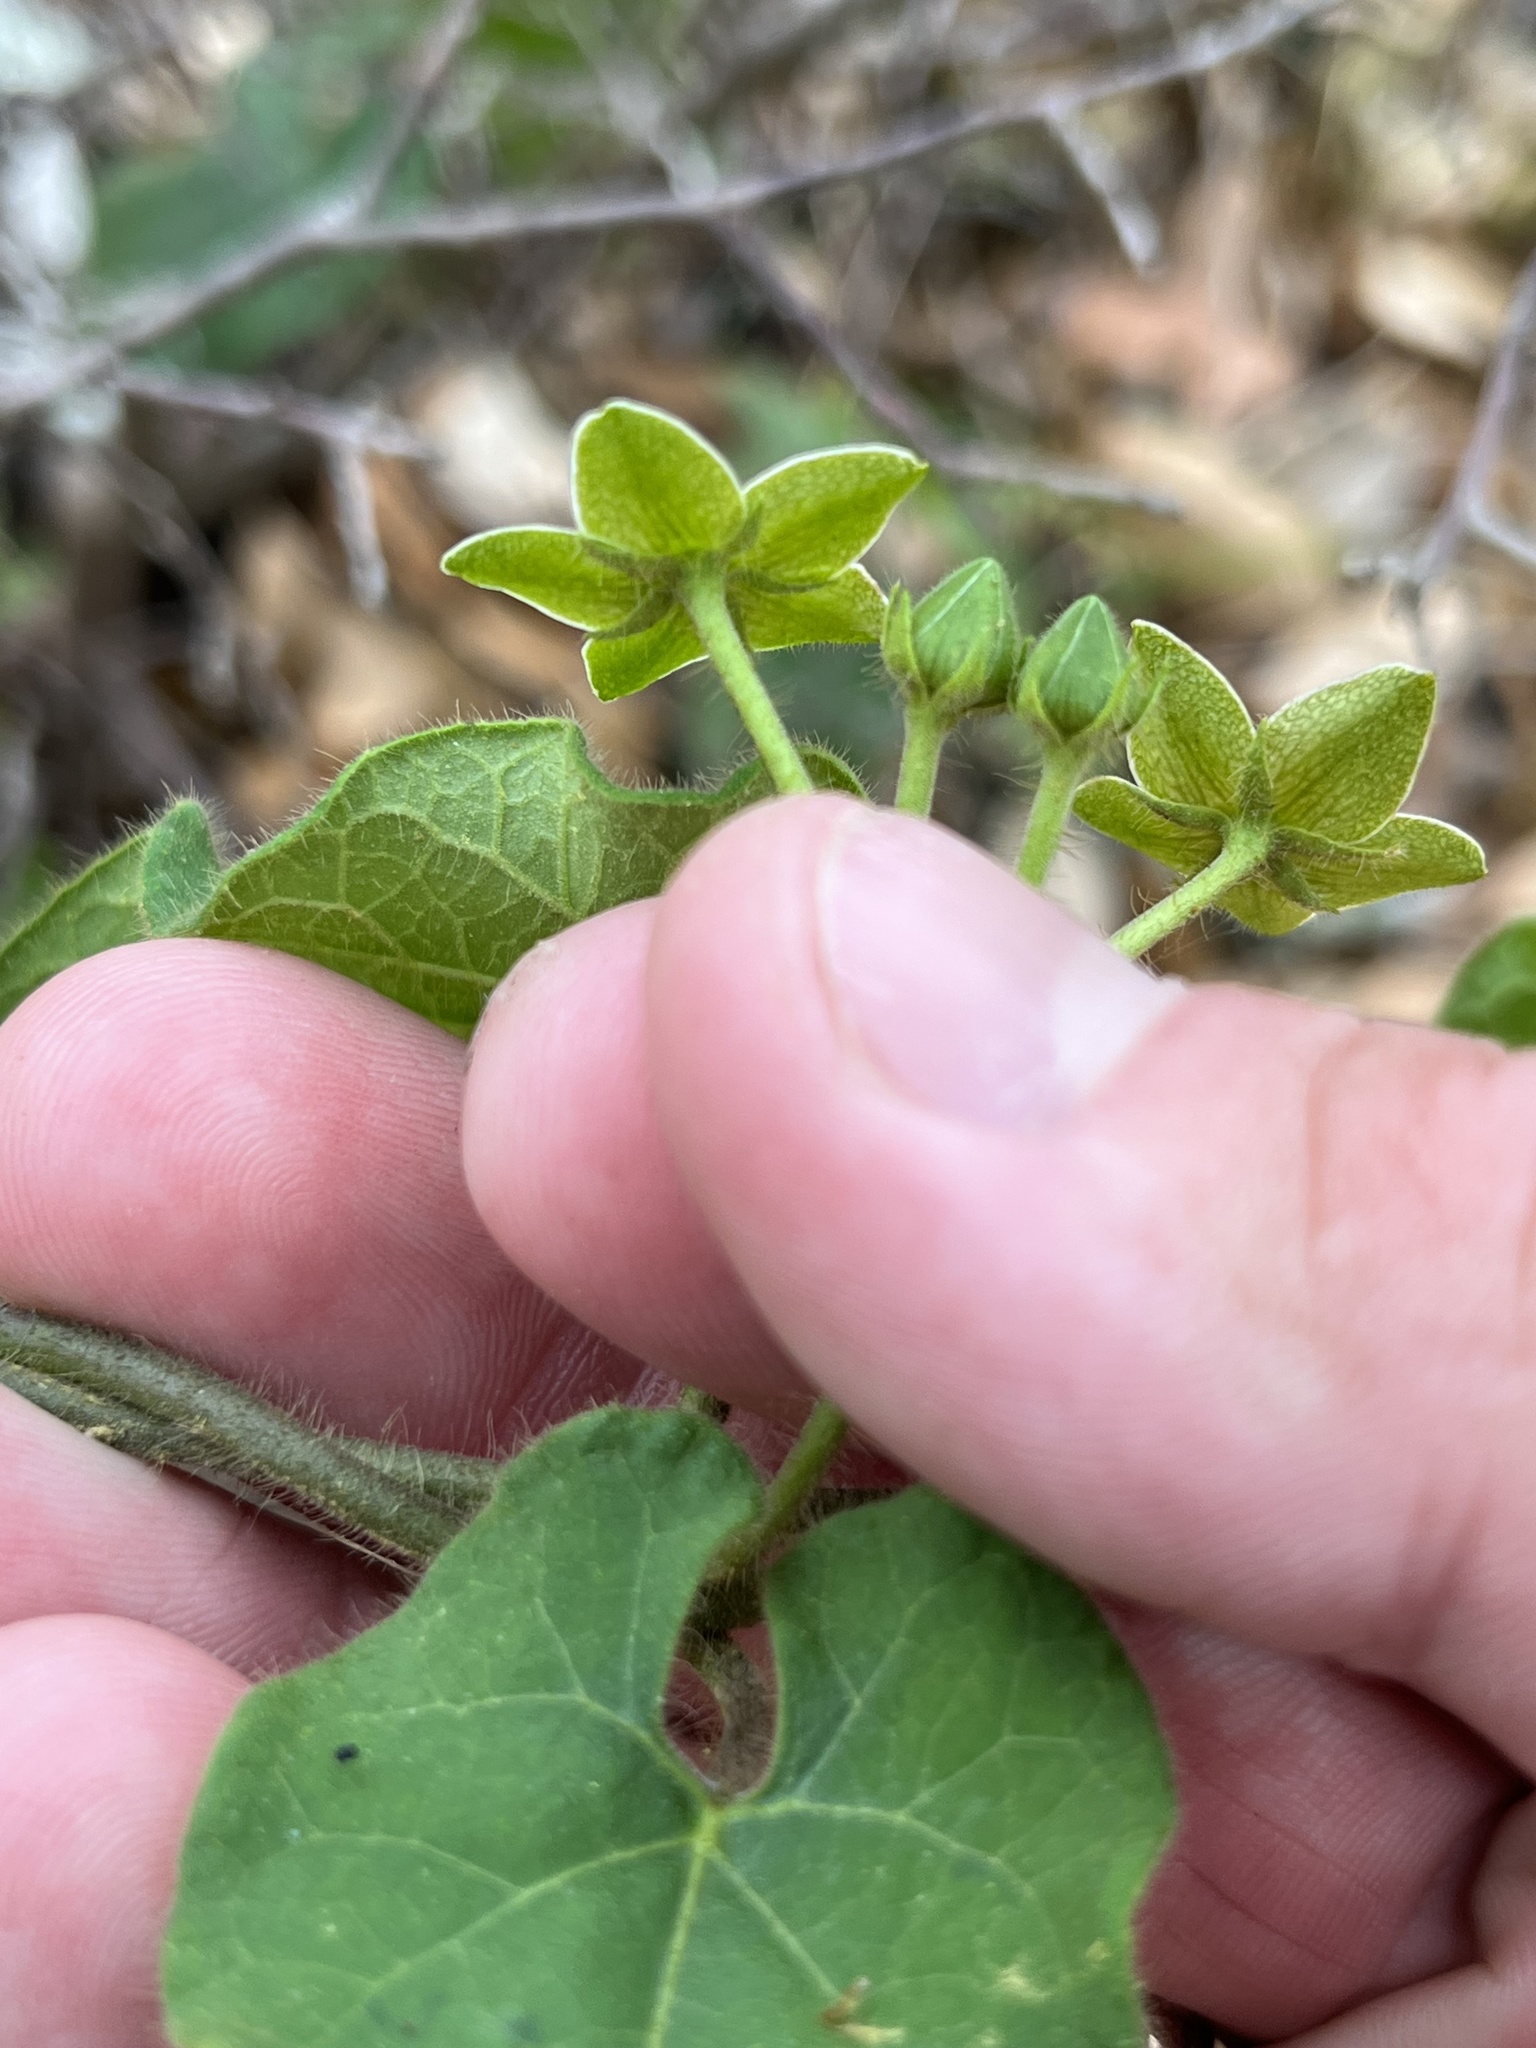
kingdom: Plantae
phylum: Tracheophyta
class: Magnoliopsida
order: Gentianales
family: Apocynaceae
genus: Dictyanthus
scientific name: Dictyanthus reticulatus
